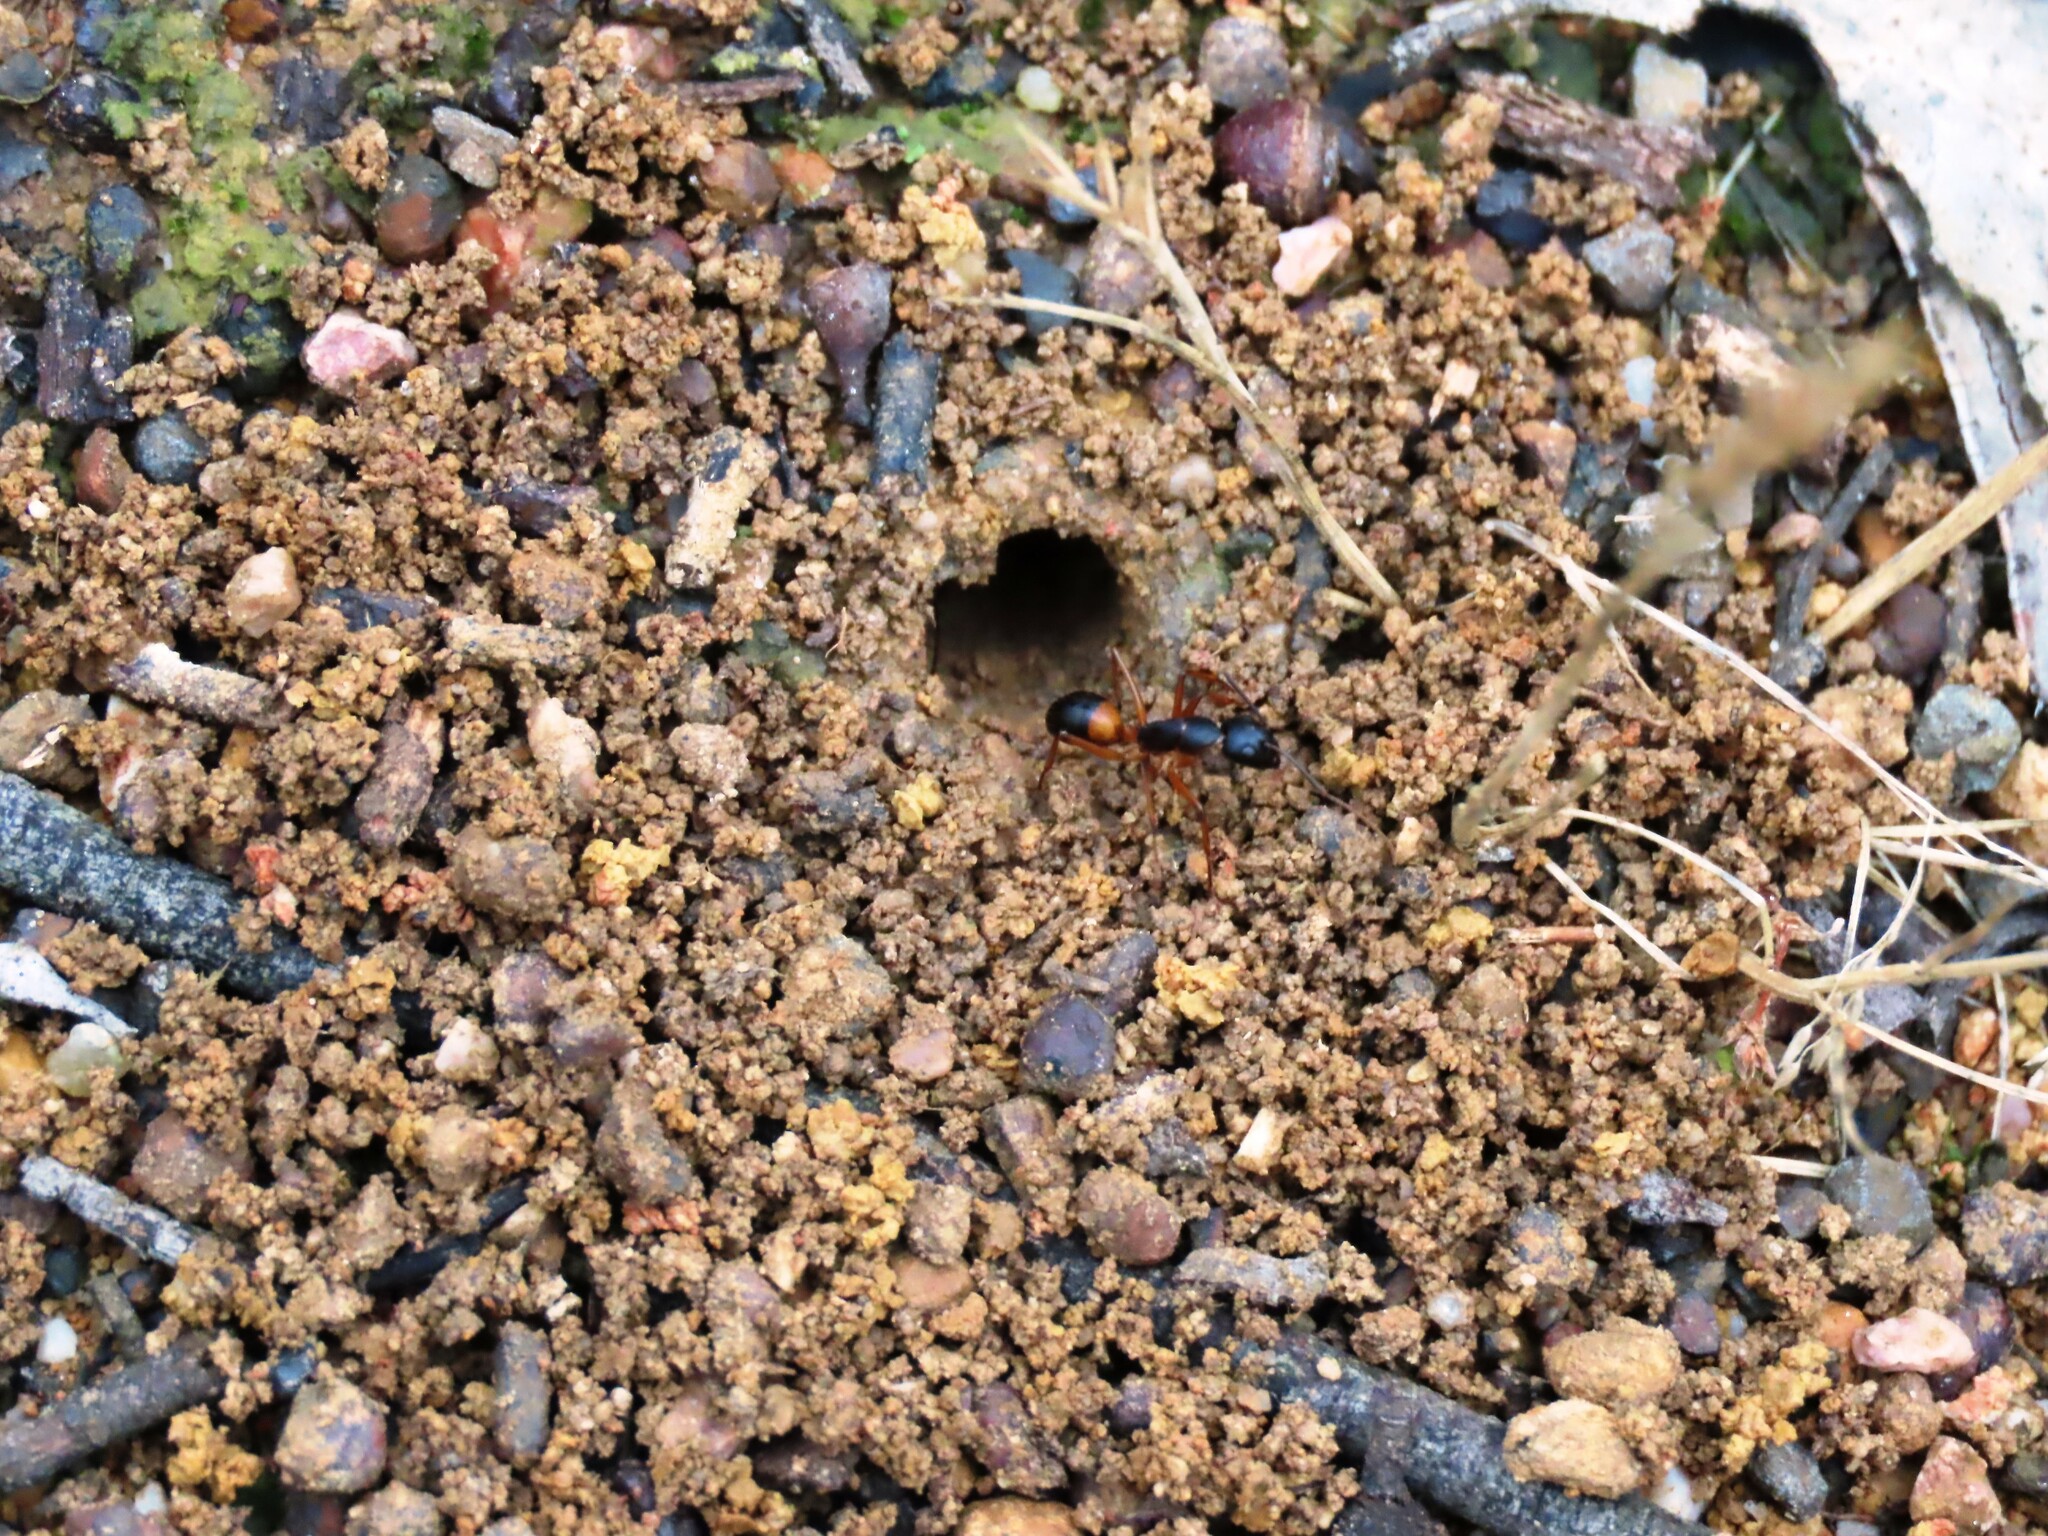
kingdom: Animalia
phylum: Arthropoda
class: Insecta
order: Hymenoptera
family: Formicidae
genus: Camponotus
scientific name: Camponotus consobrinus
